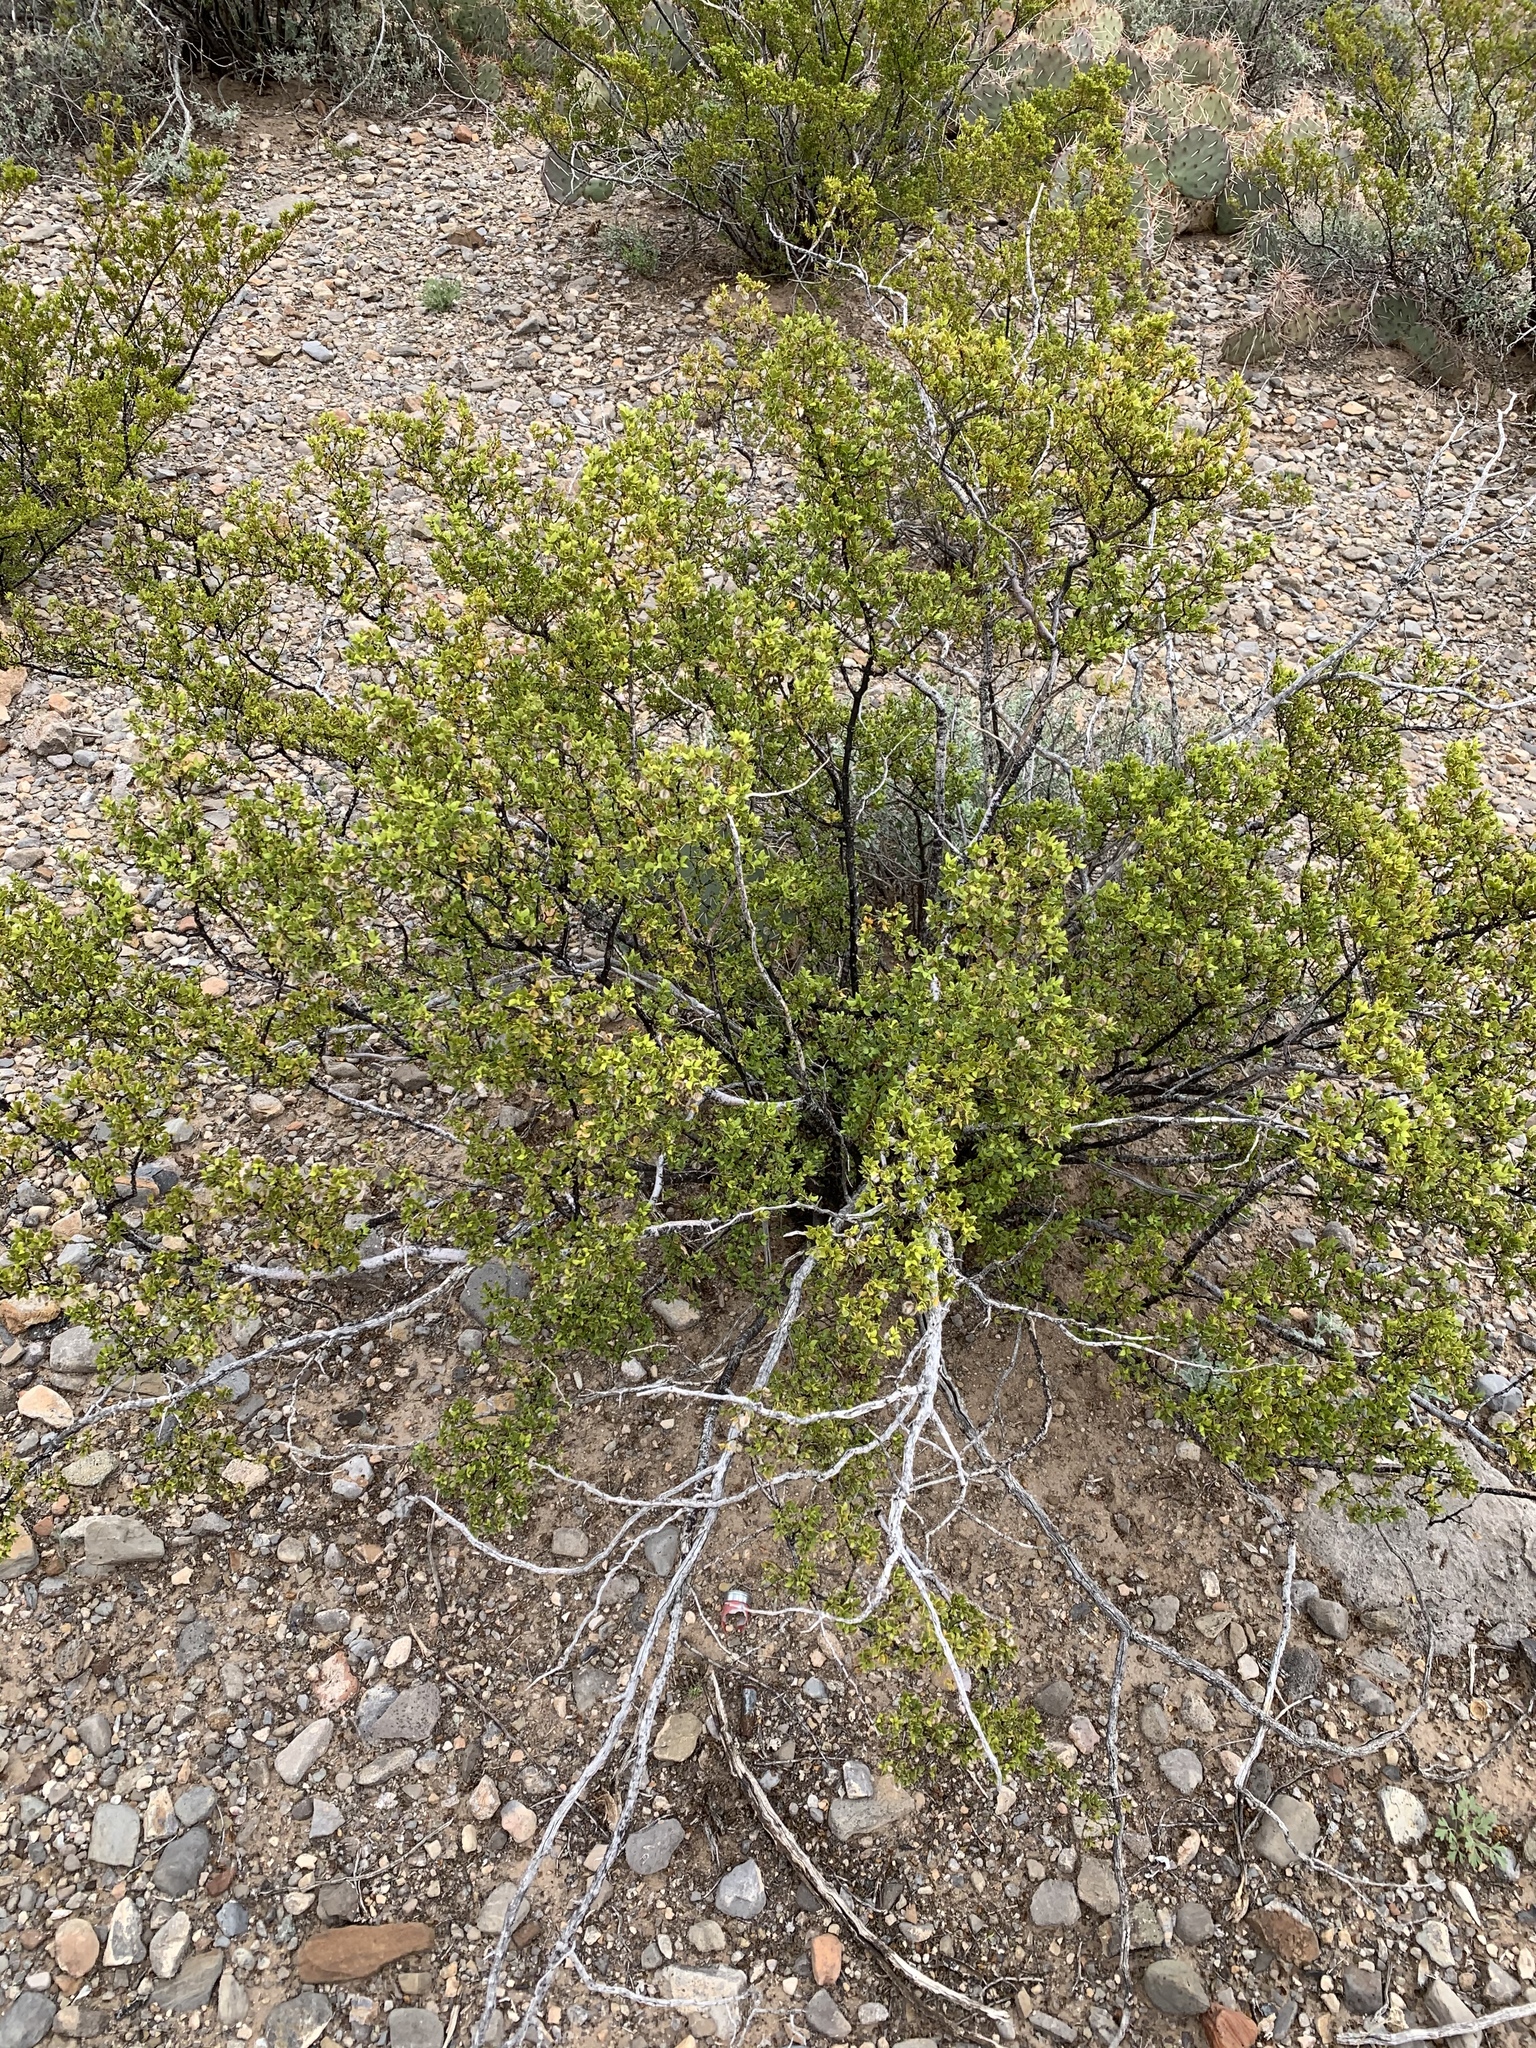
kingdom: Plantae
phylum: Tracheophyta
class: Magnoliopsida
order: Zygophyllales
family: Zygophyllaceae
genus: Larrea
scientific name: Larrea tridentata
